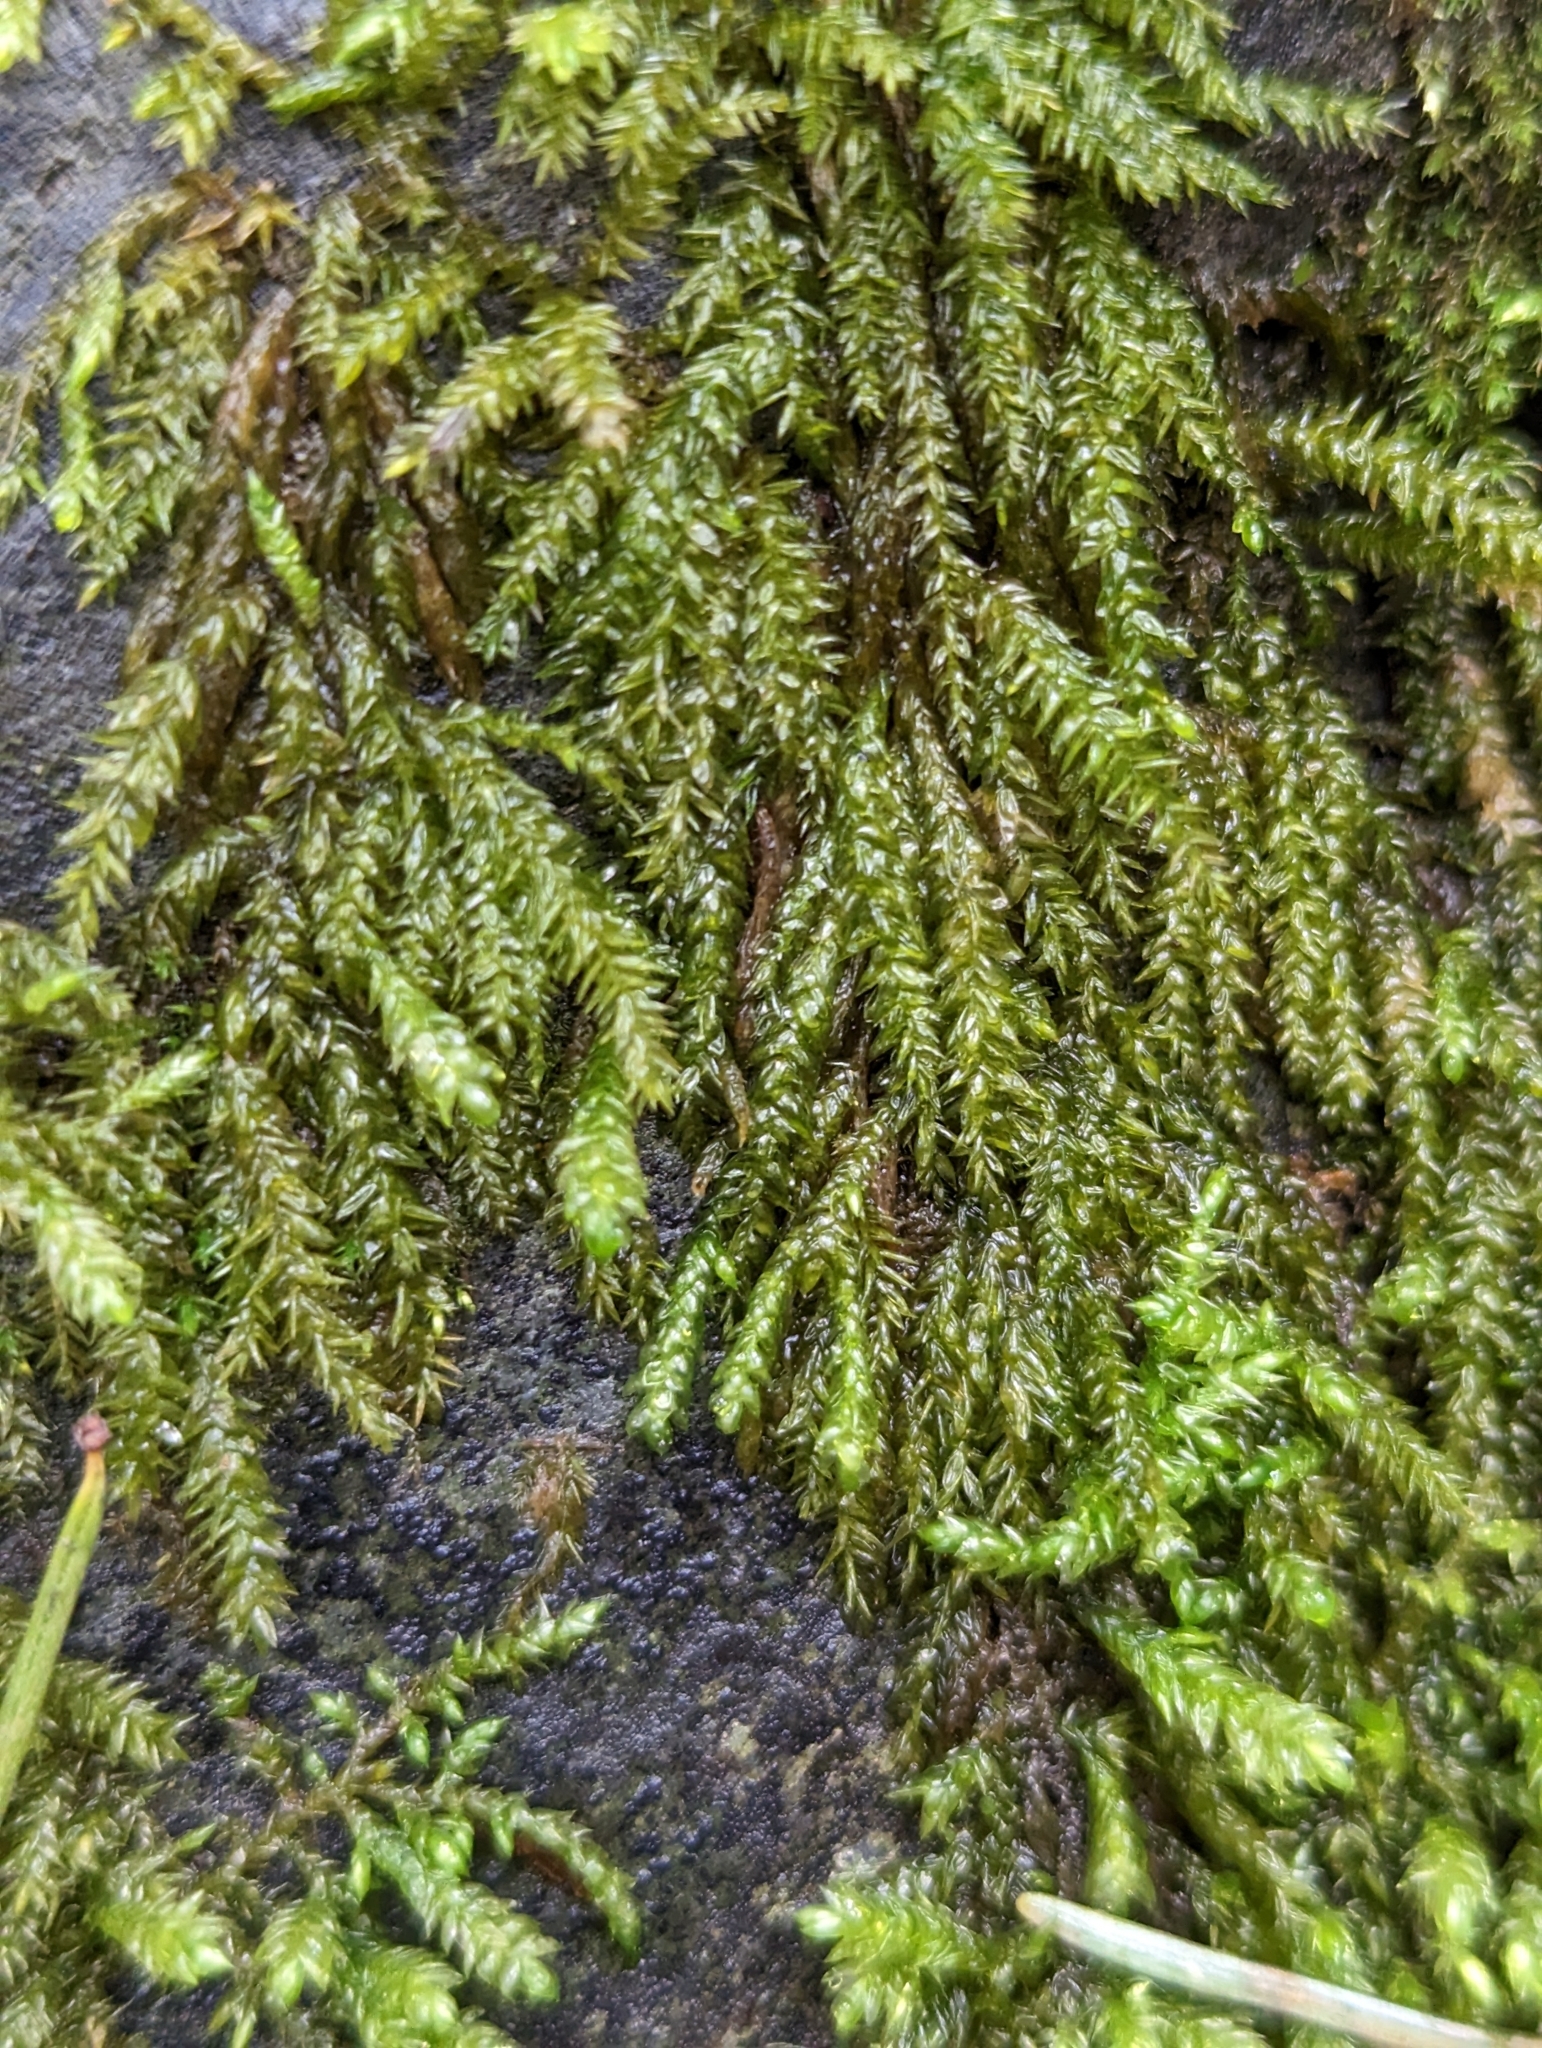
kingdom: Plantae
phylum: Bryophyta
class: Bryopsida
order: Hypnales
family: Brachytheciaceae
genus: Scleropodium
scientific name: Scleropodium obtusifolium
